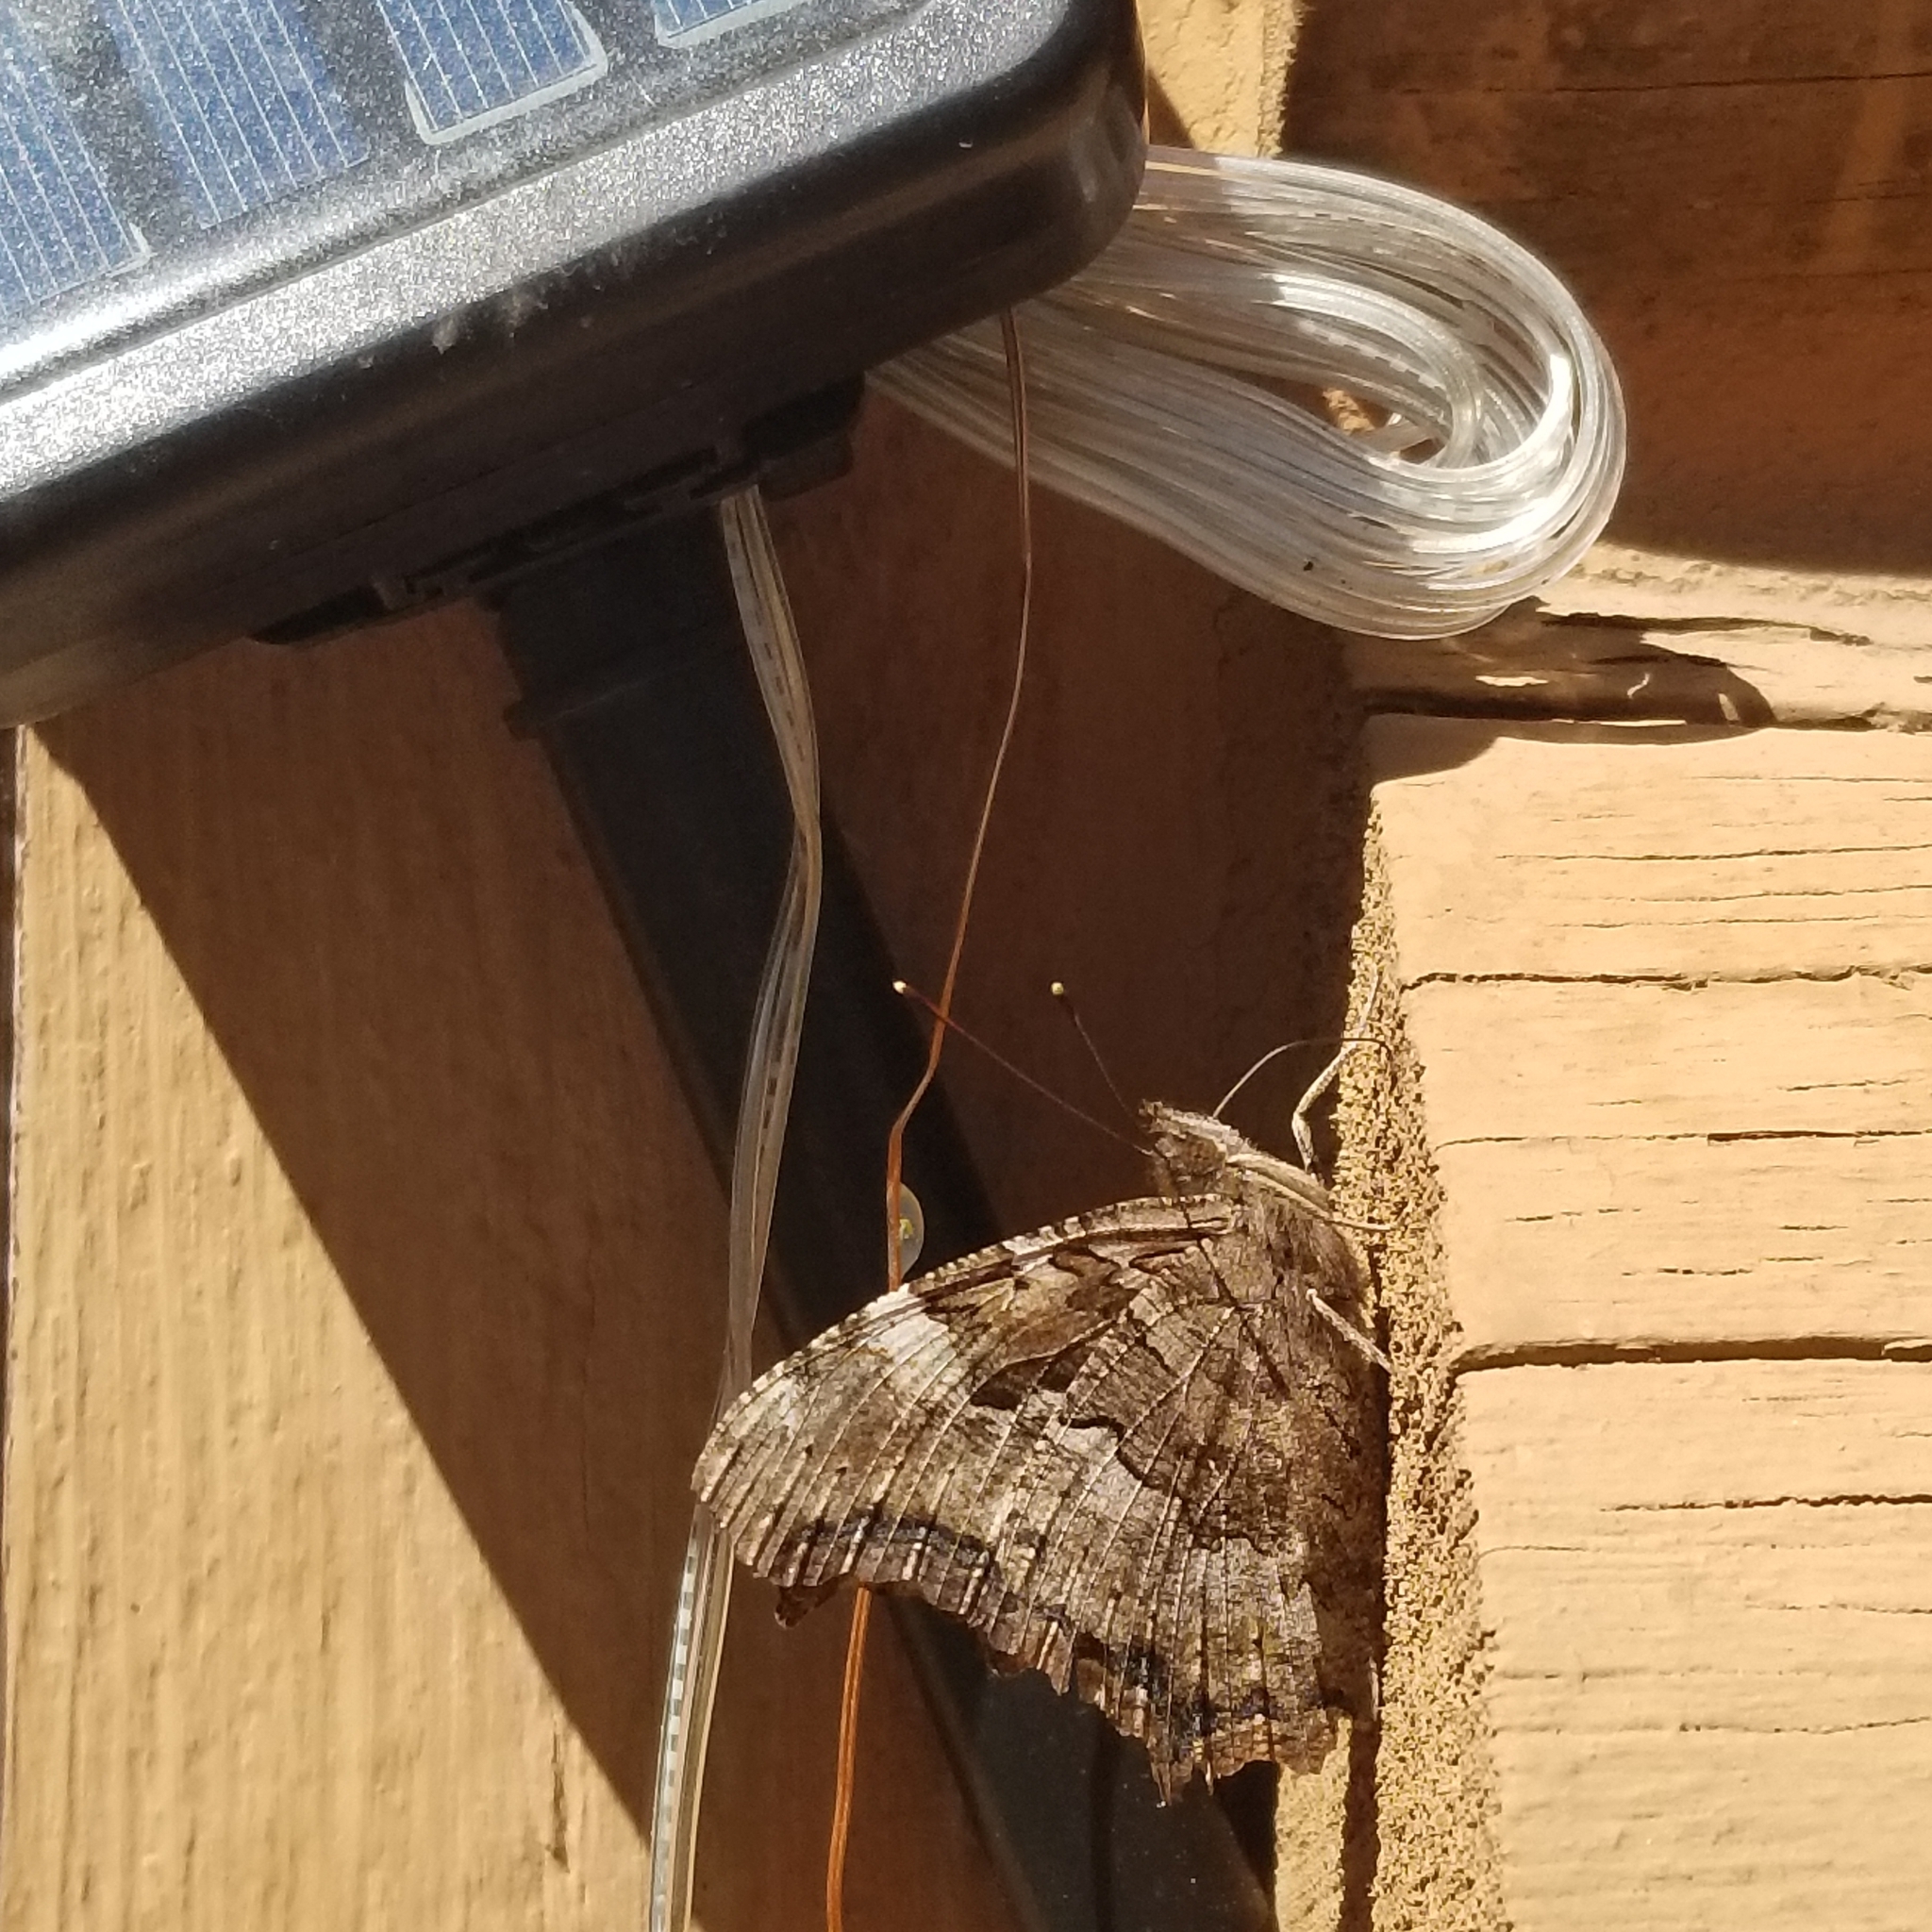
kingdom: Animalia
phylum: Arthropoda
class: Insecta
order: Lepidoptera
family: Nymphalidae
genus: Polygonia
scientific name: Polygonia vaualbum
